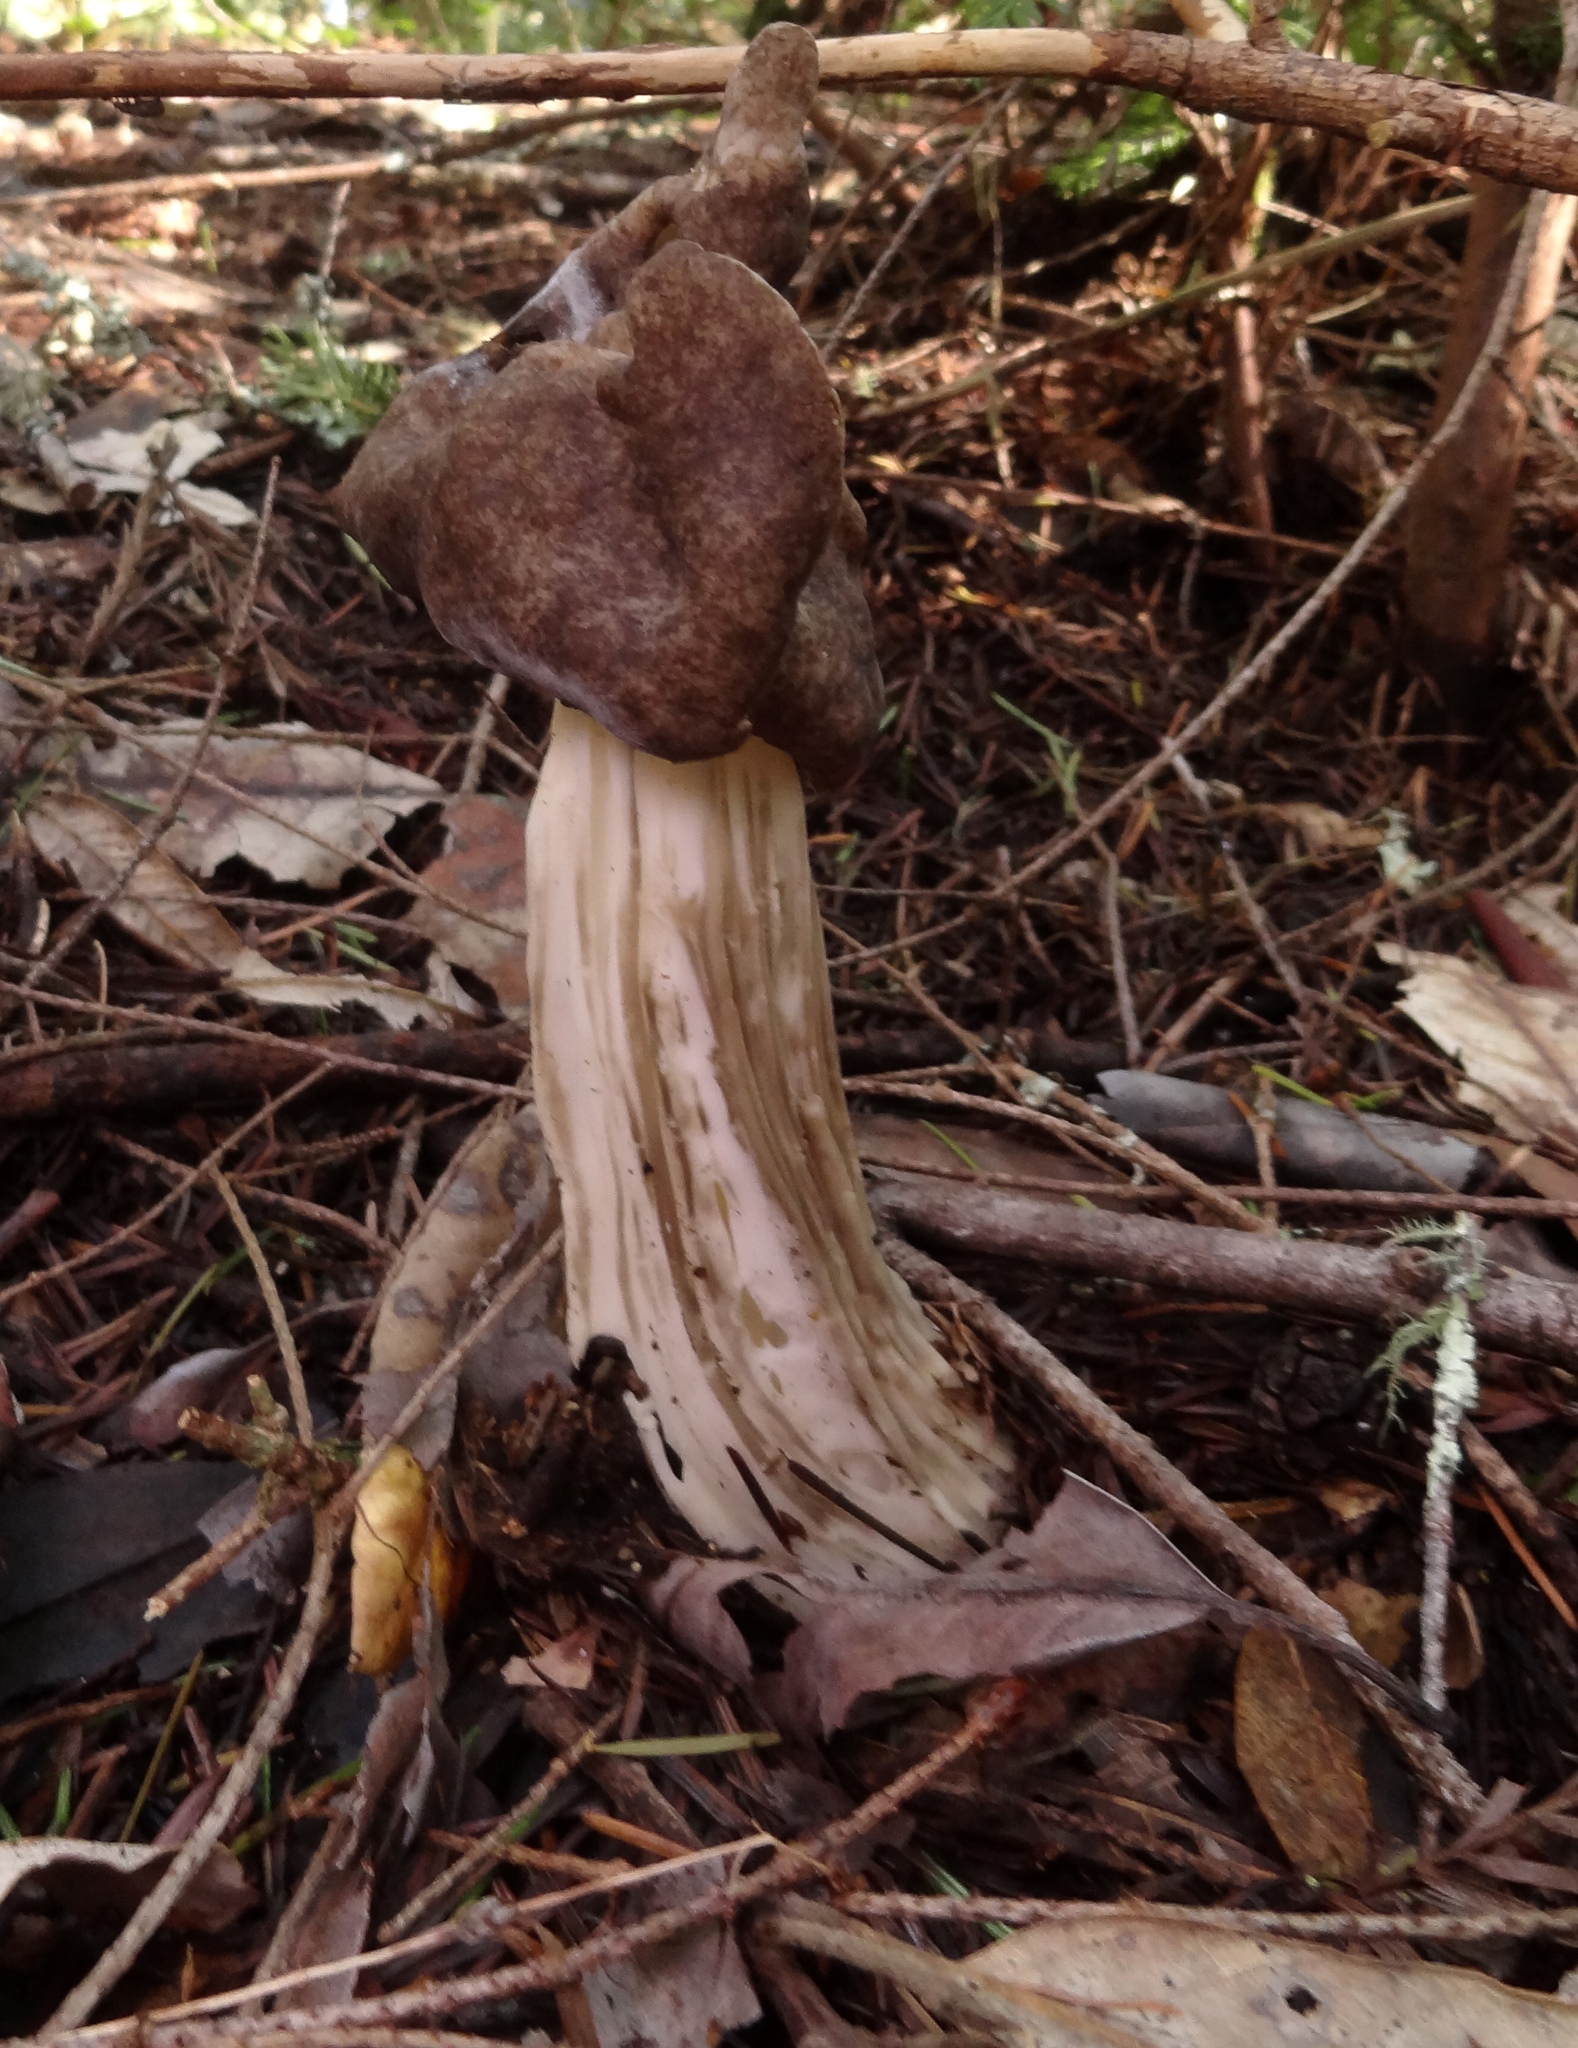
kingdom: Fungi
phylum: Ascomycota
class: Pezizomycetes
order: Pezizales
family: Helvellaceae
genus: Helvella
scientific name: Helvella maculata
